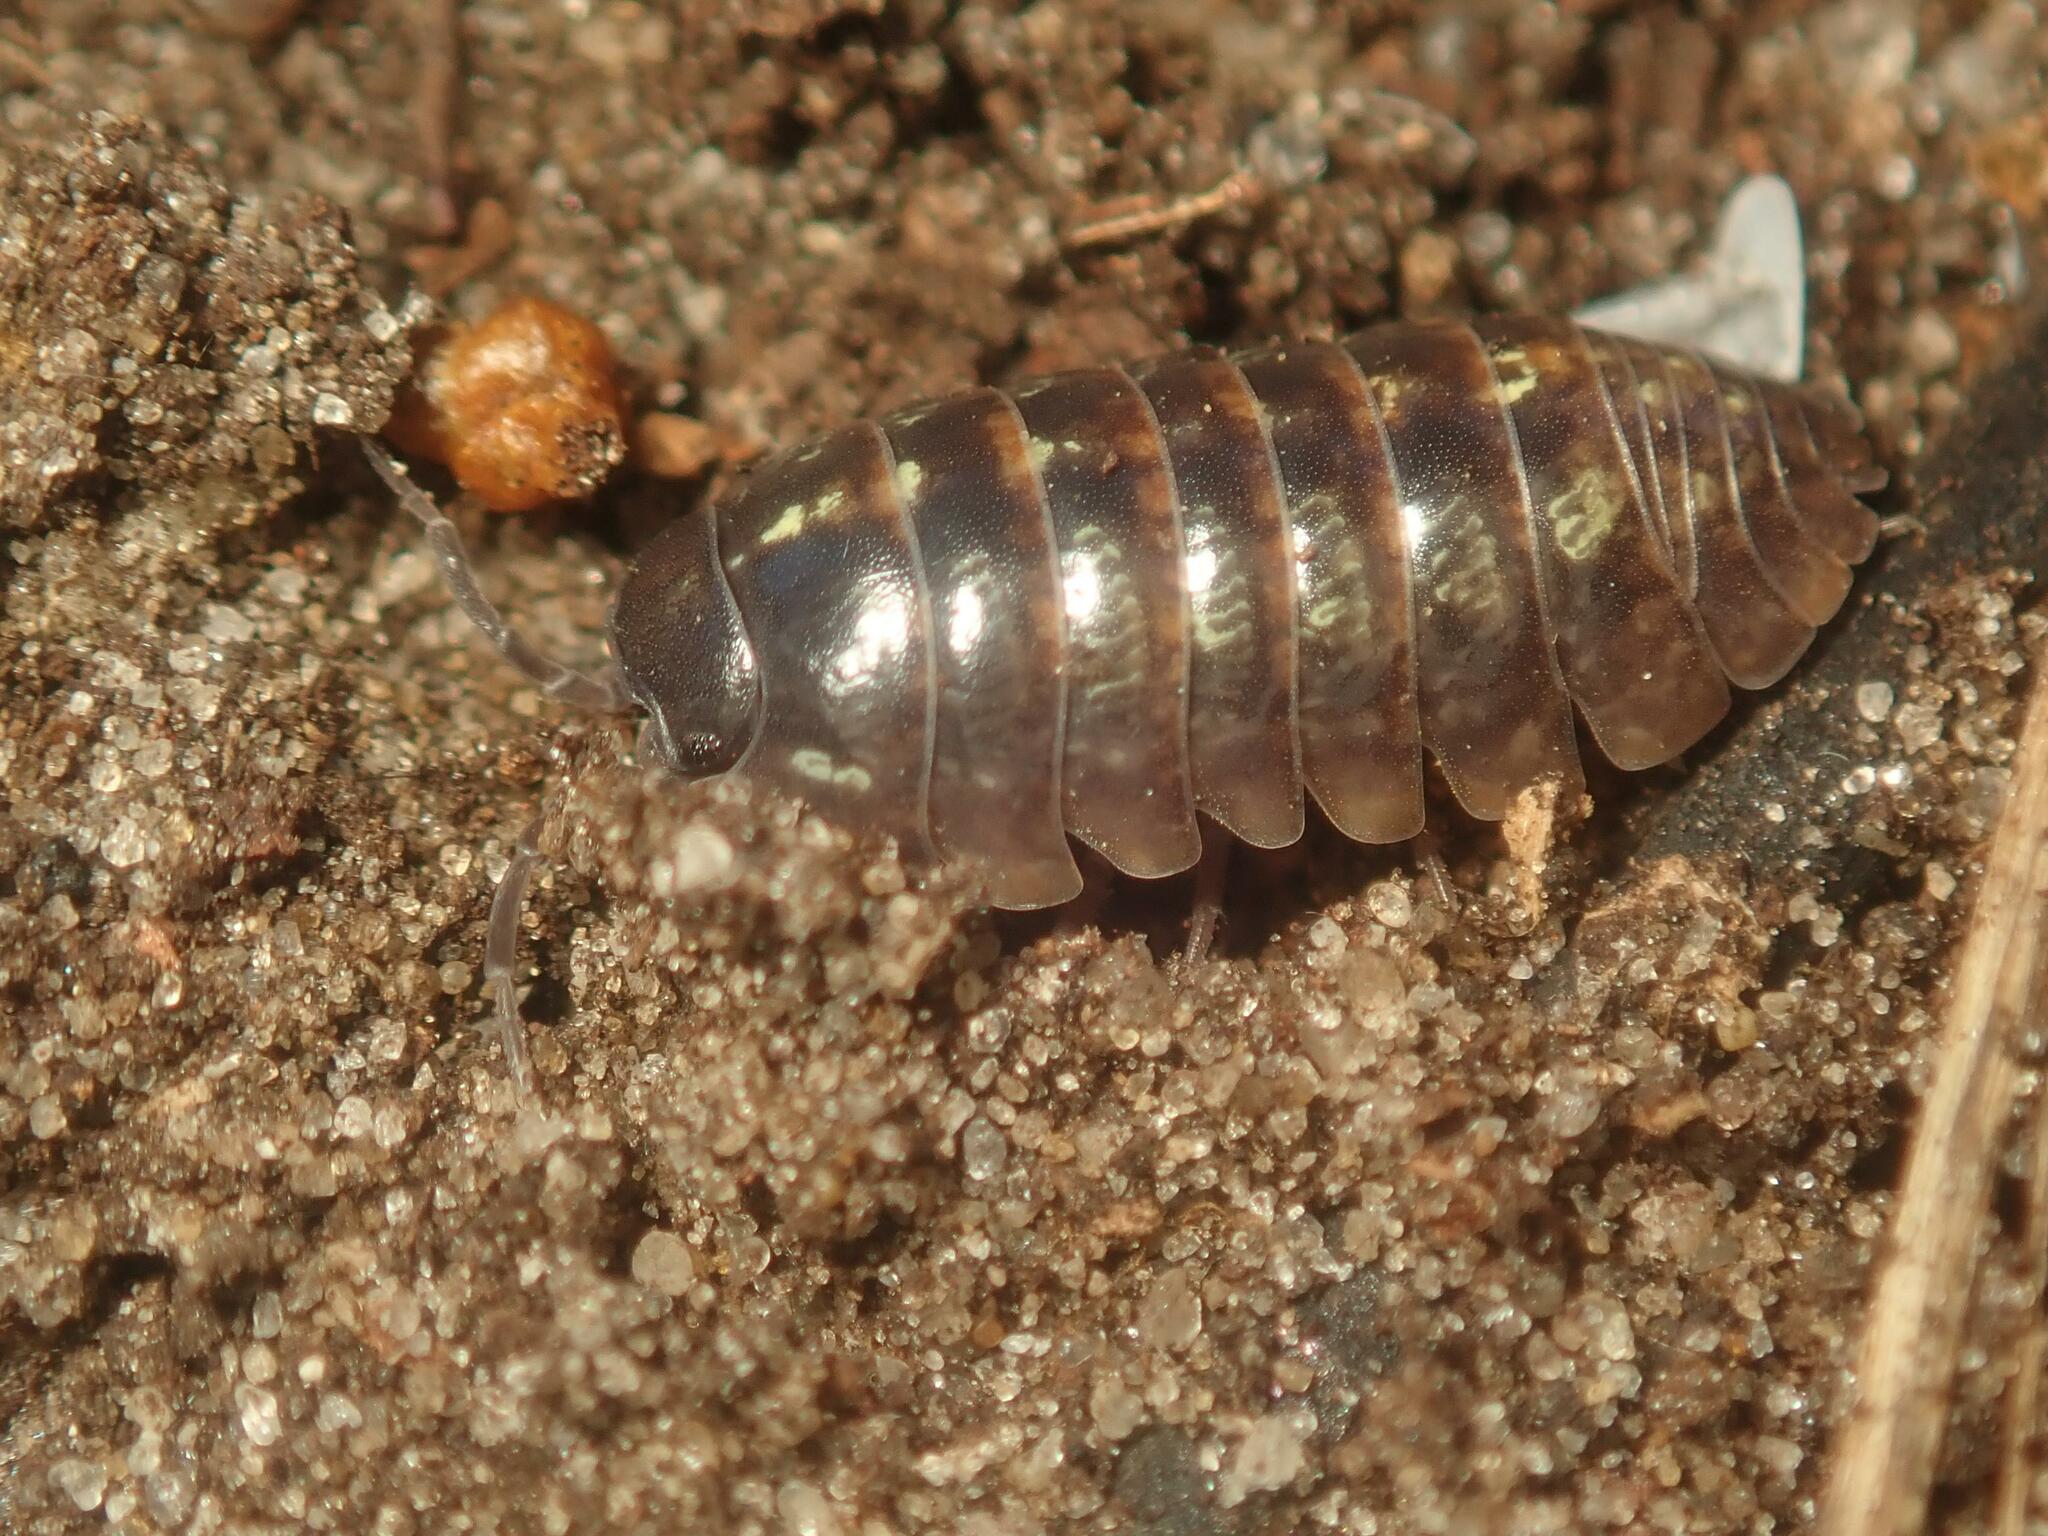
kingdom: Animalia
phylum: Arthropoda
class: Malacostraca
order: Isopoda
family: Armadillidiidae
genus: Armadillidium
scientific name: Armadillidium vulgare
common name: Common pill woodlouse
